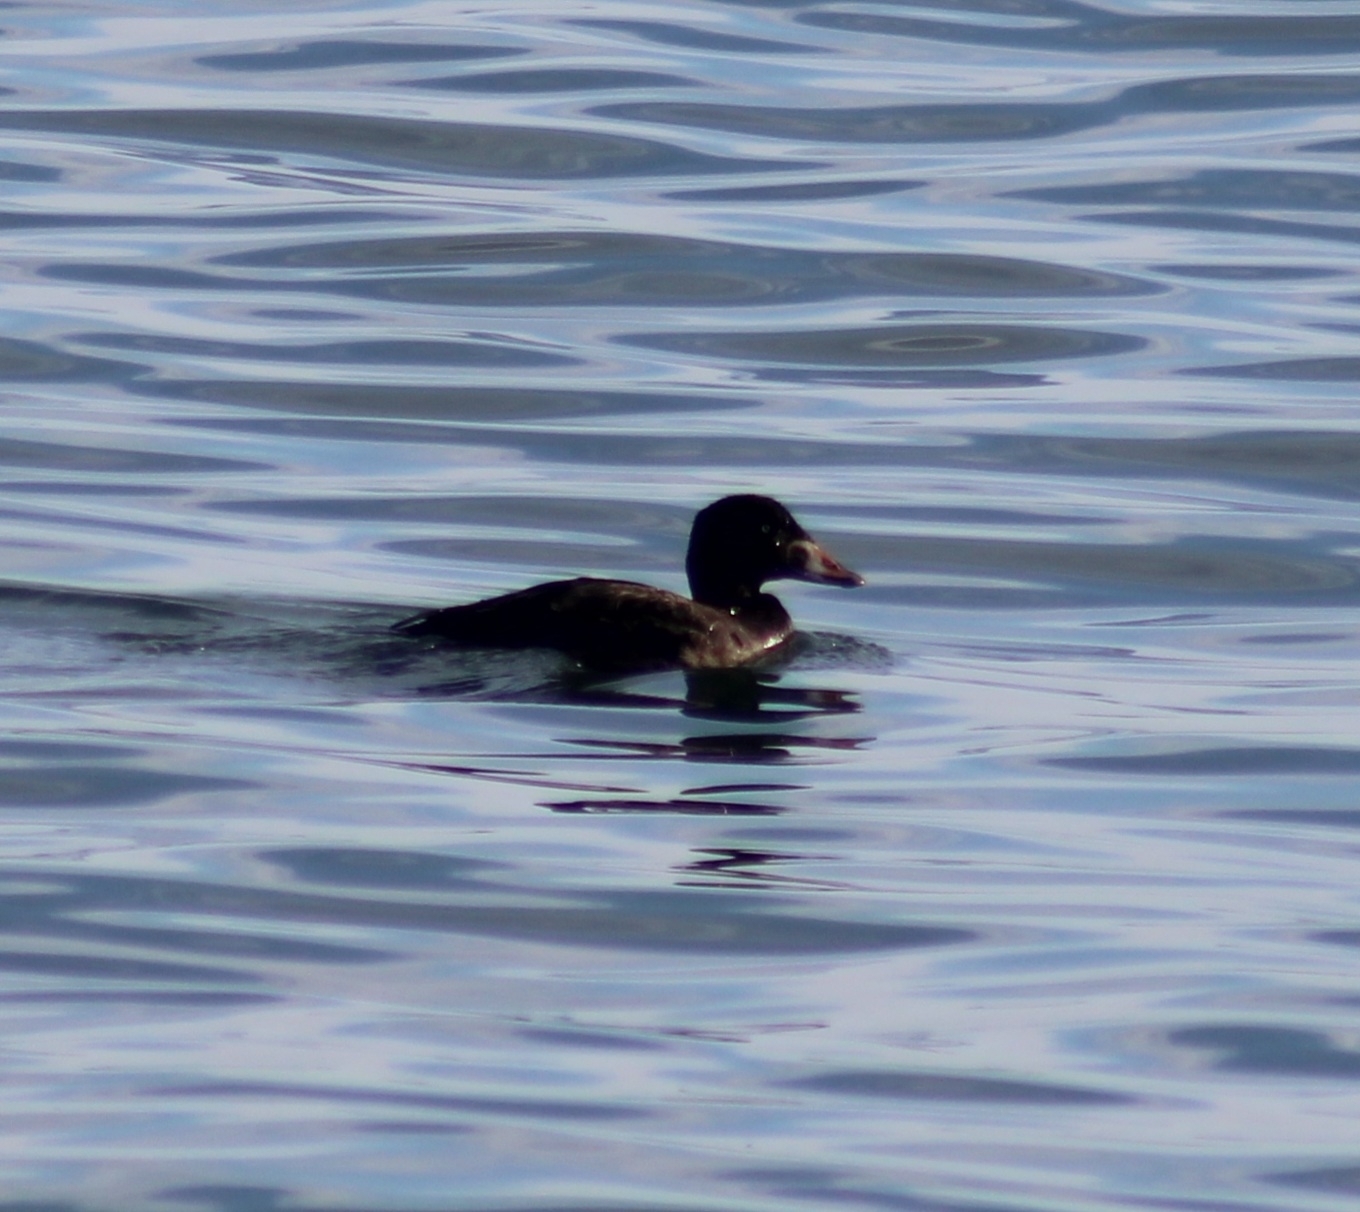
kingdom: Animalia
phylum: Chordata
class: Aves
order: Anseriformes
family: Anatidae
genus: Melanitta
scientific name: Melanitta perspicillata
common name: Surf scoter
